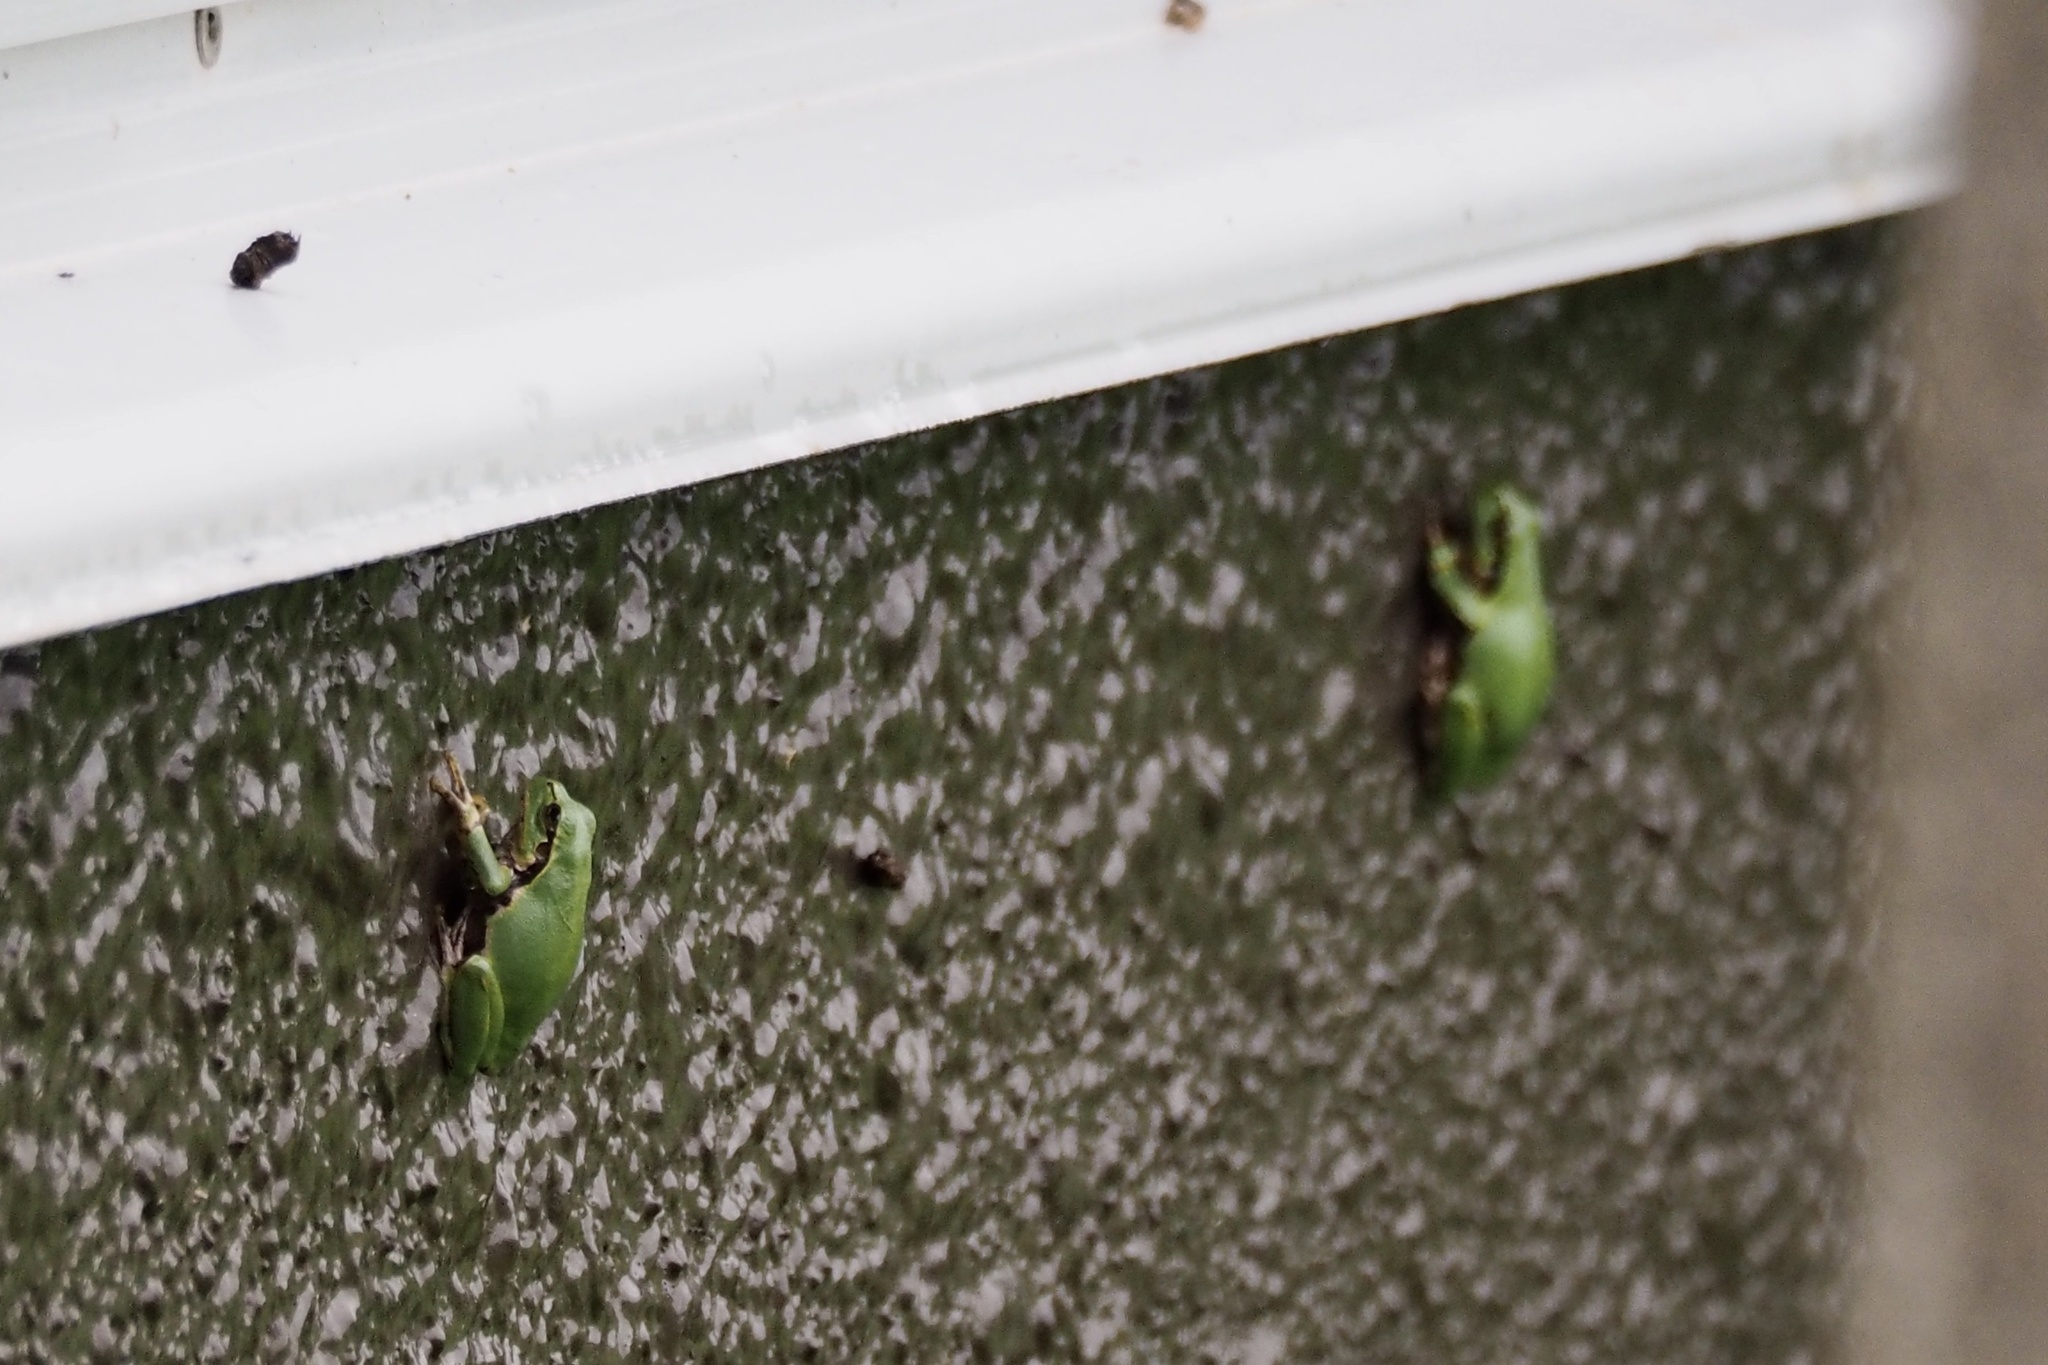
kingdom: Animalia
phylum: Chordata
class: Amphibia
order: Anura
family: Hylidae
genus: Dryophytes
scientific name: Dryophytes japonicus
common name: Japanese treefrog
